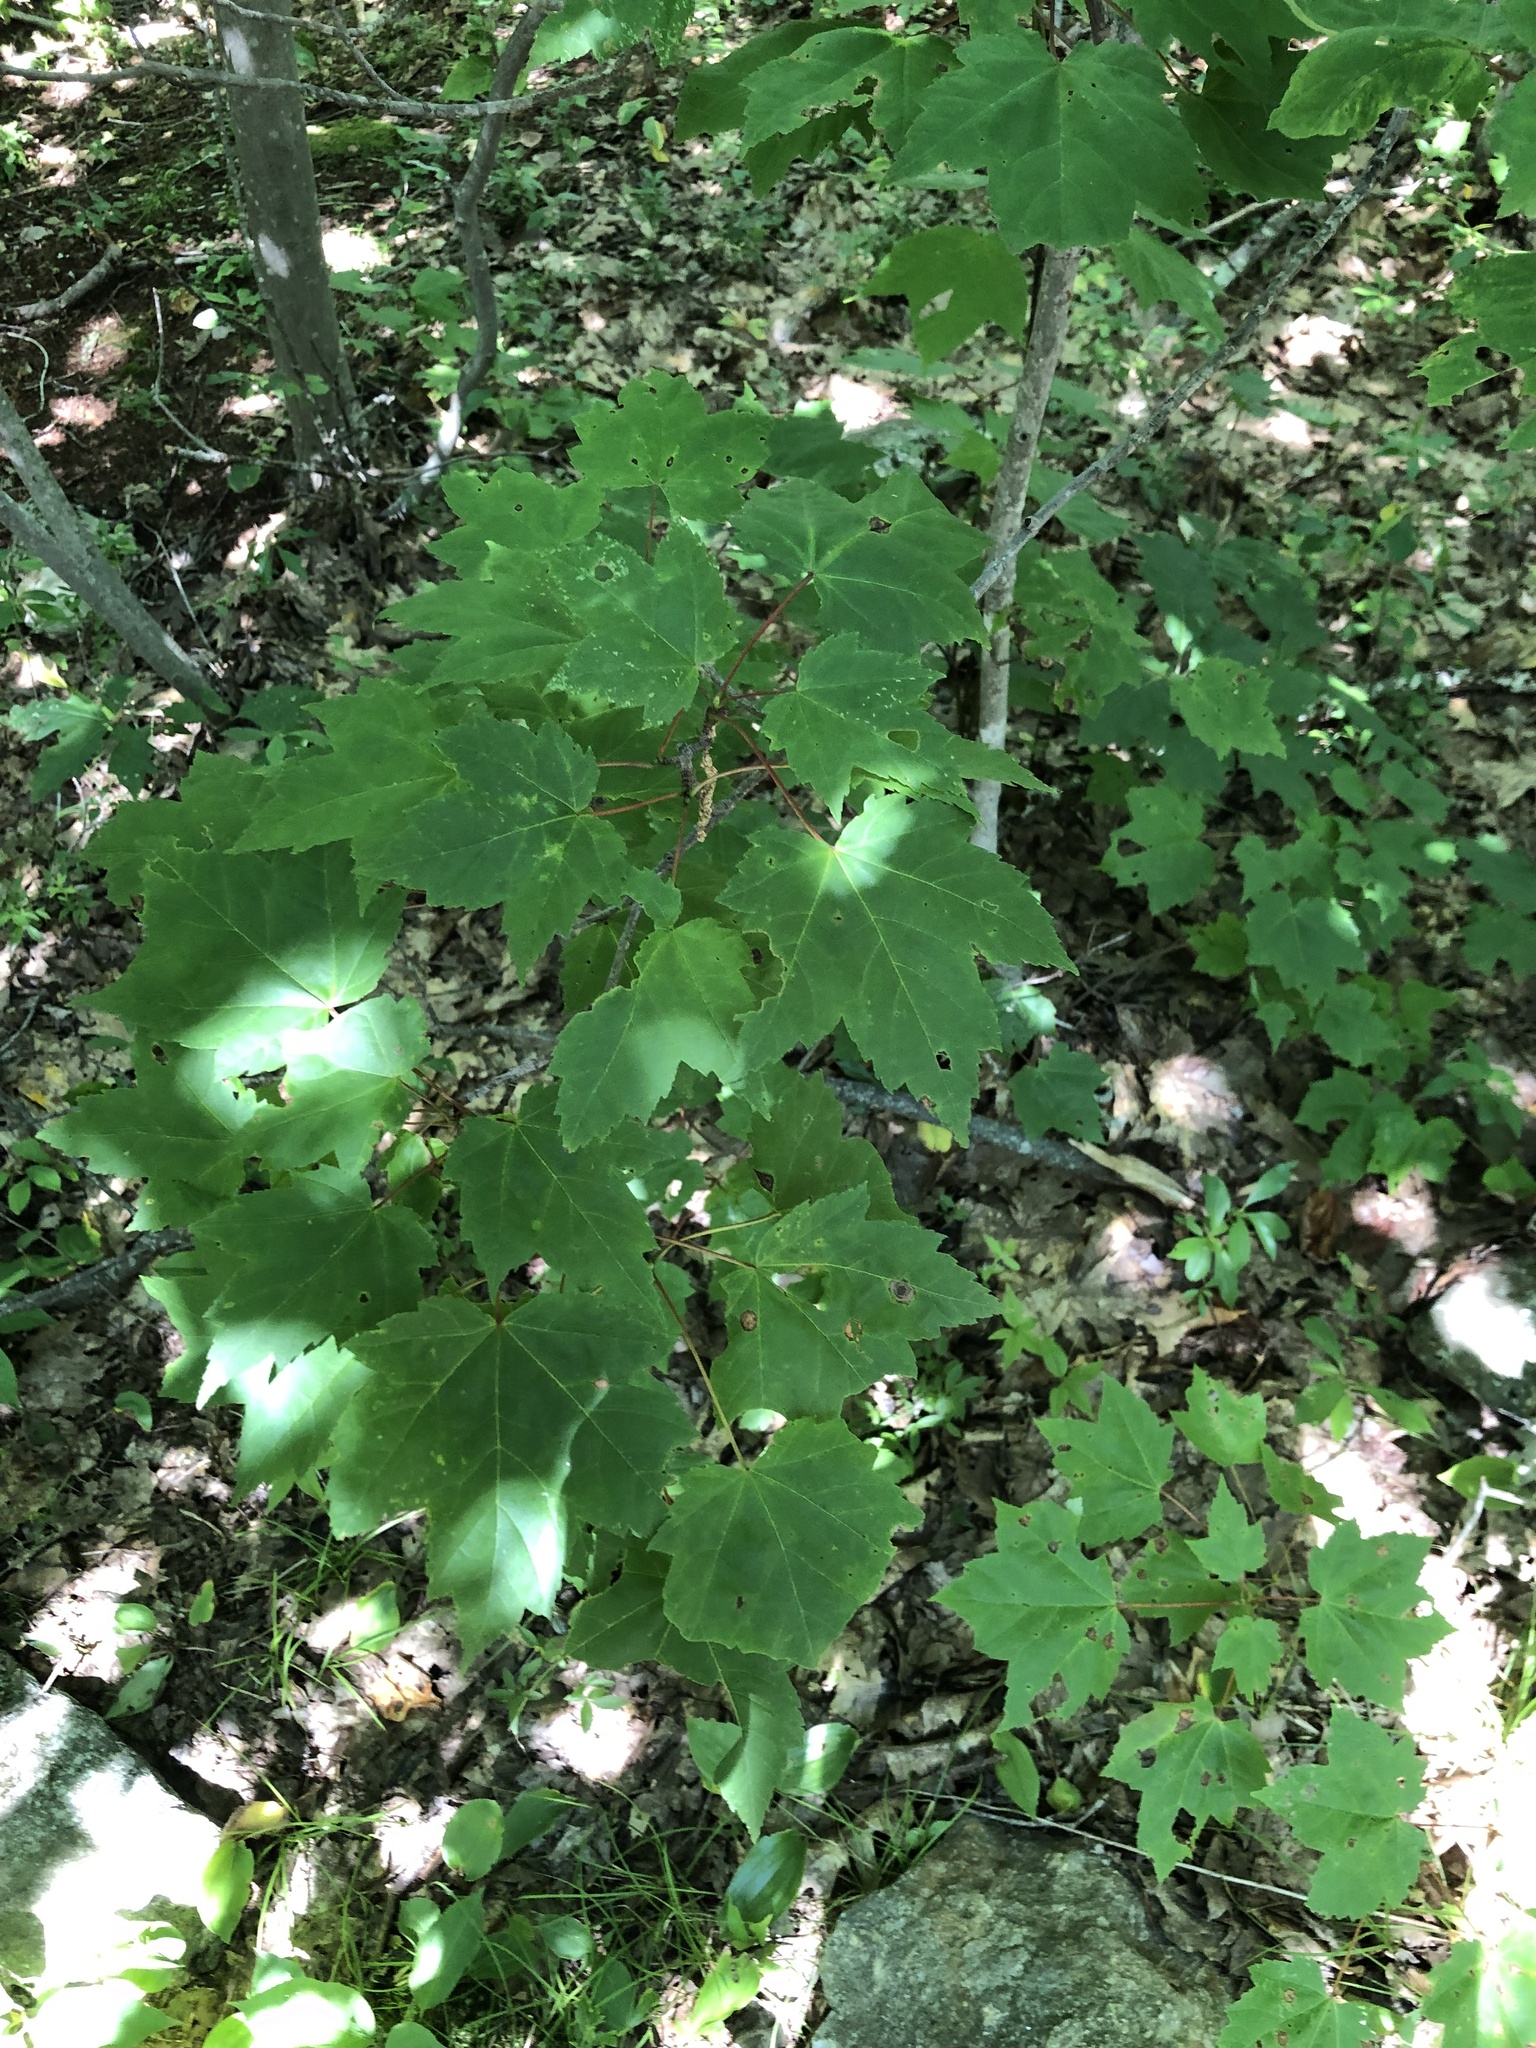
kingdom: Plantae
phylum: Tracheophyta
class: Magnoliopsida
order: Sapindales
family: Sapindaceae
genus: Acer
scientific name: Acer rubrum
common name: Red maple
